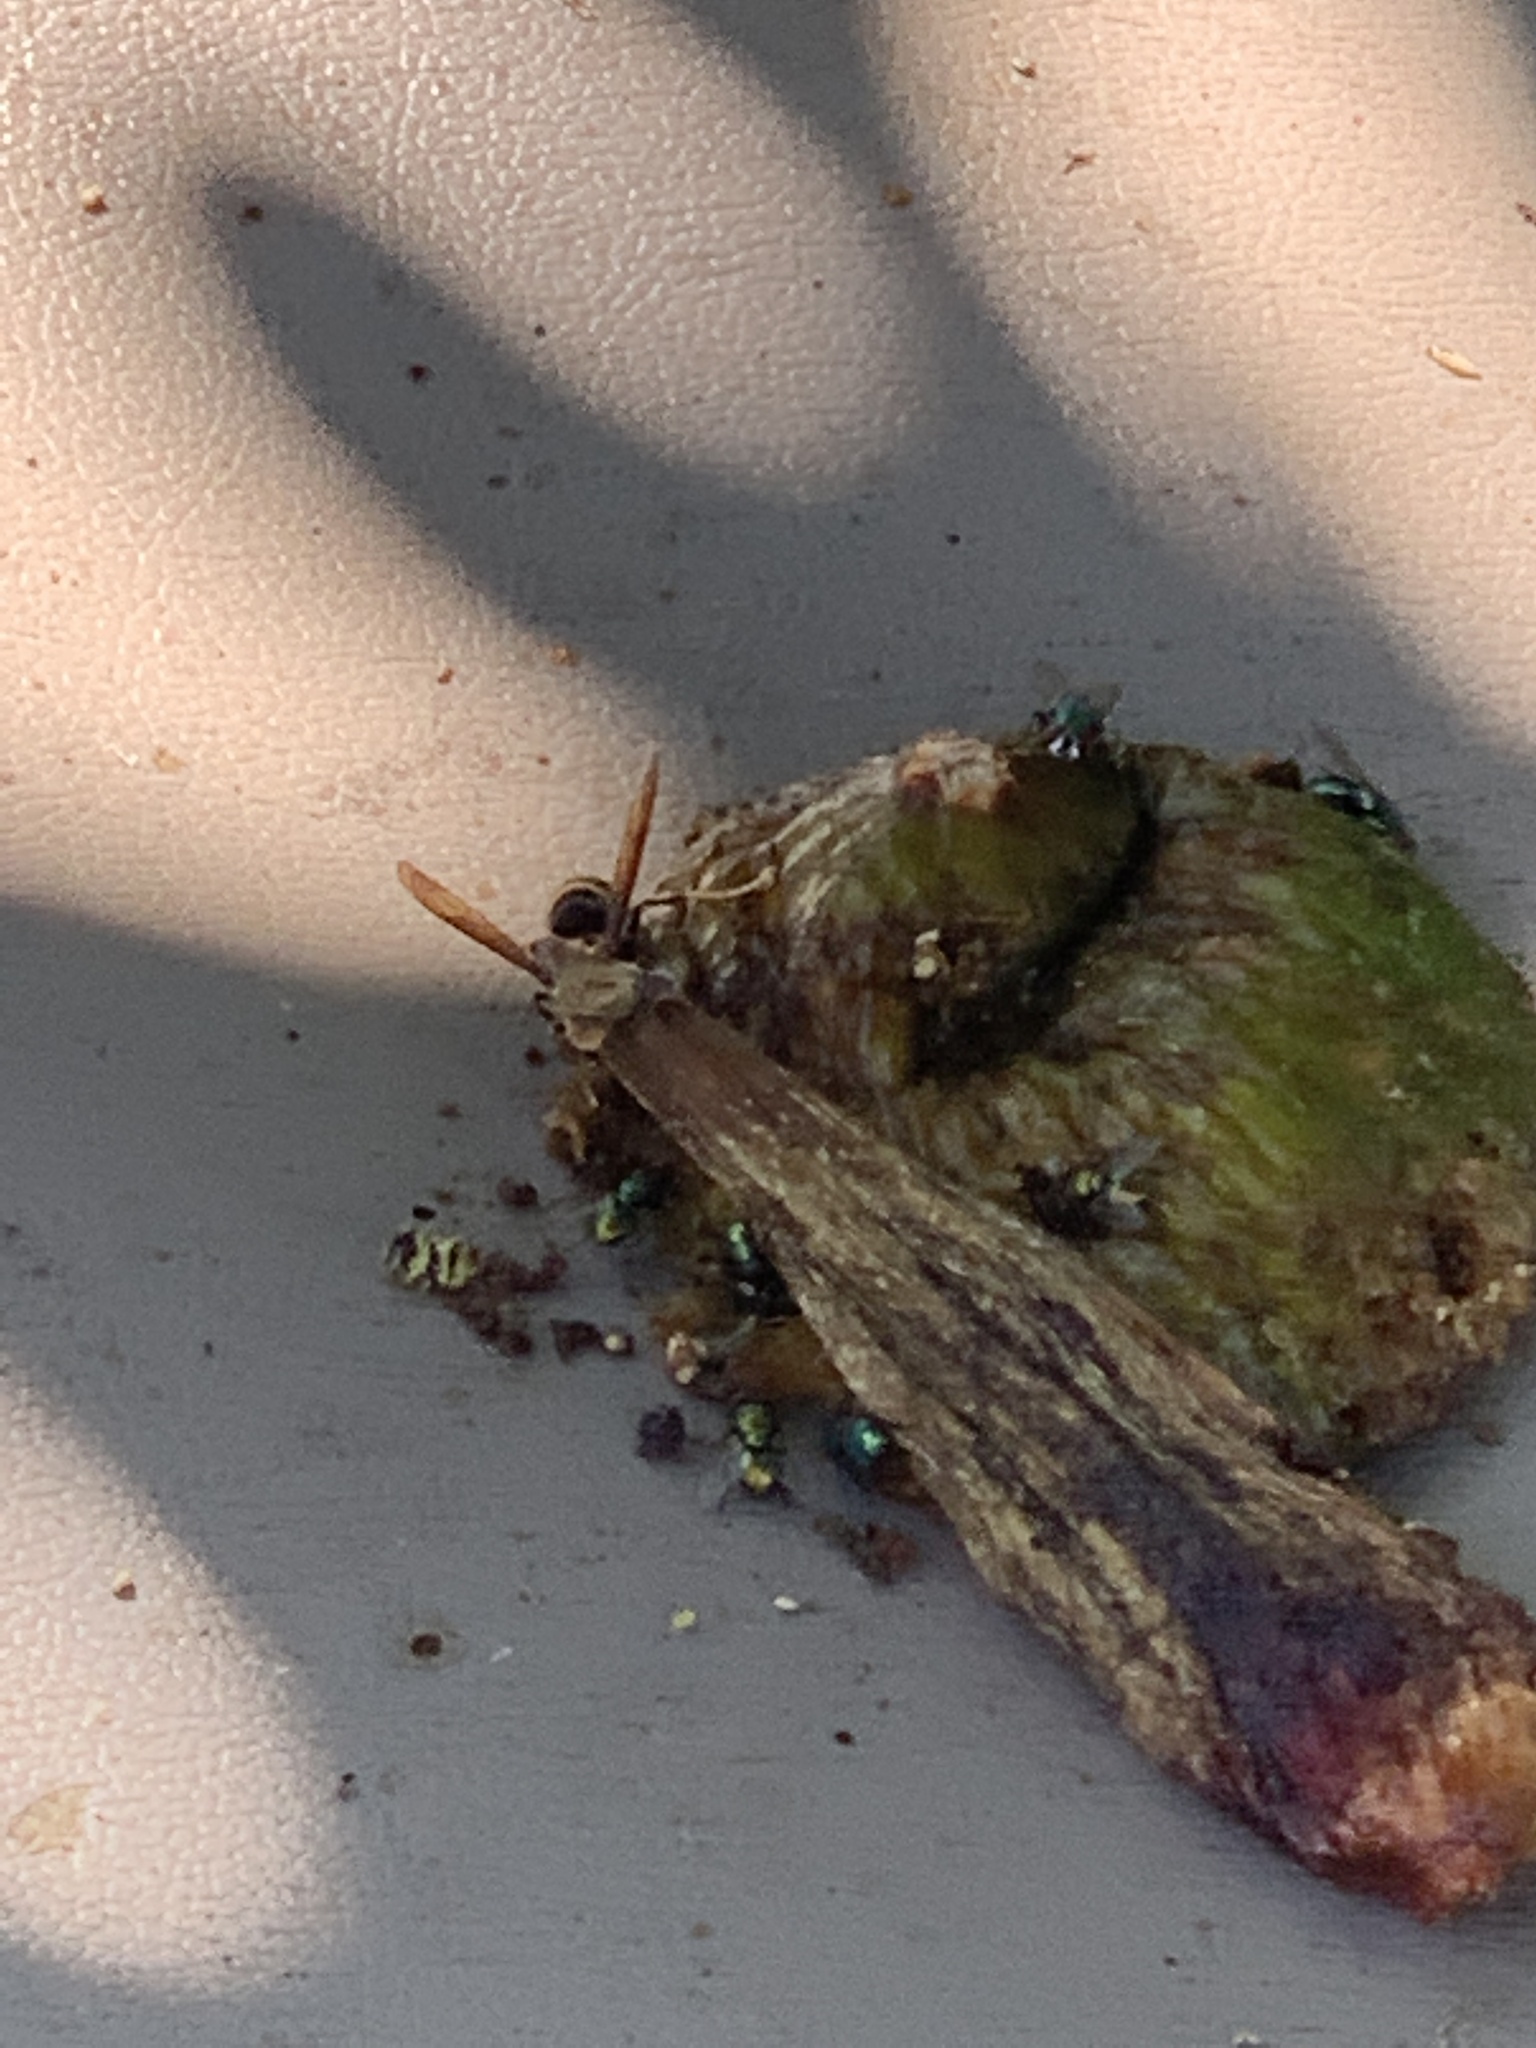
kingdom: Animalia
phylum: Arthropoda
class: Insecta
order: Hymenoptera
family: Vespidae
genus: Vespa
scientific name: Vespa velutina
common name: Asian hornet
